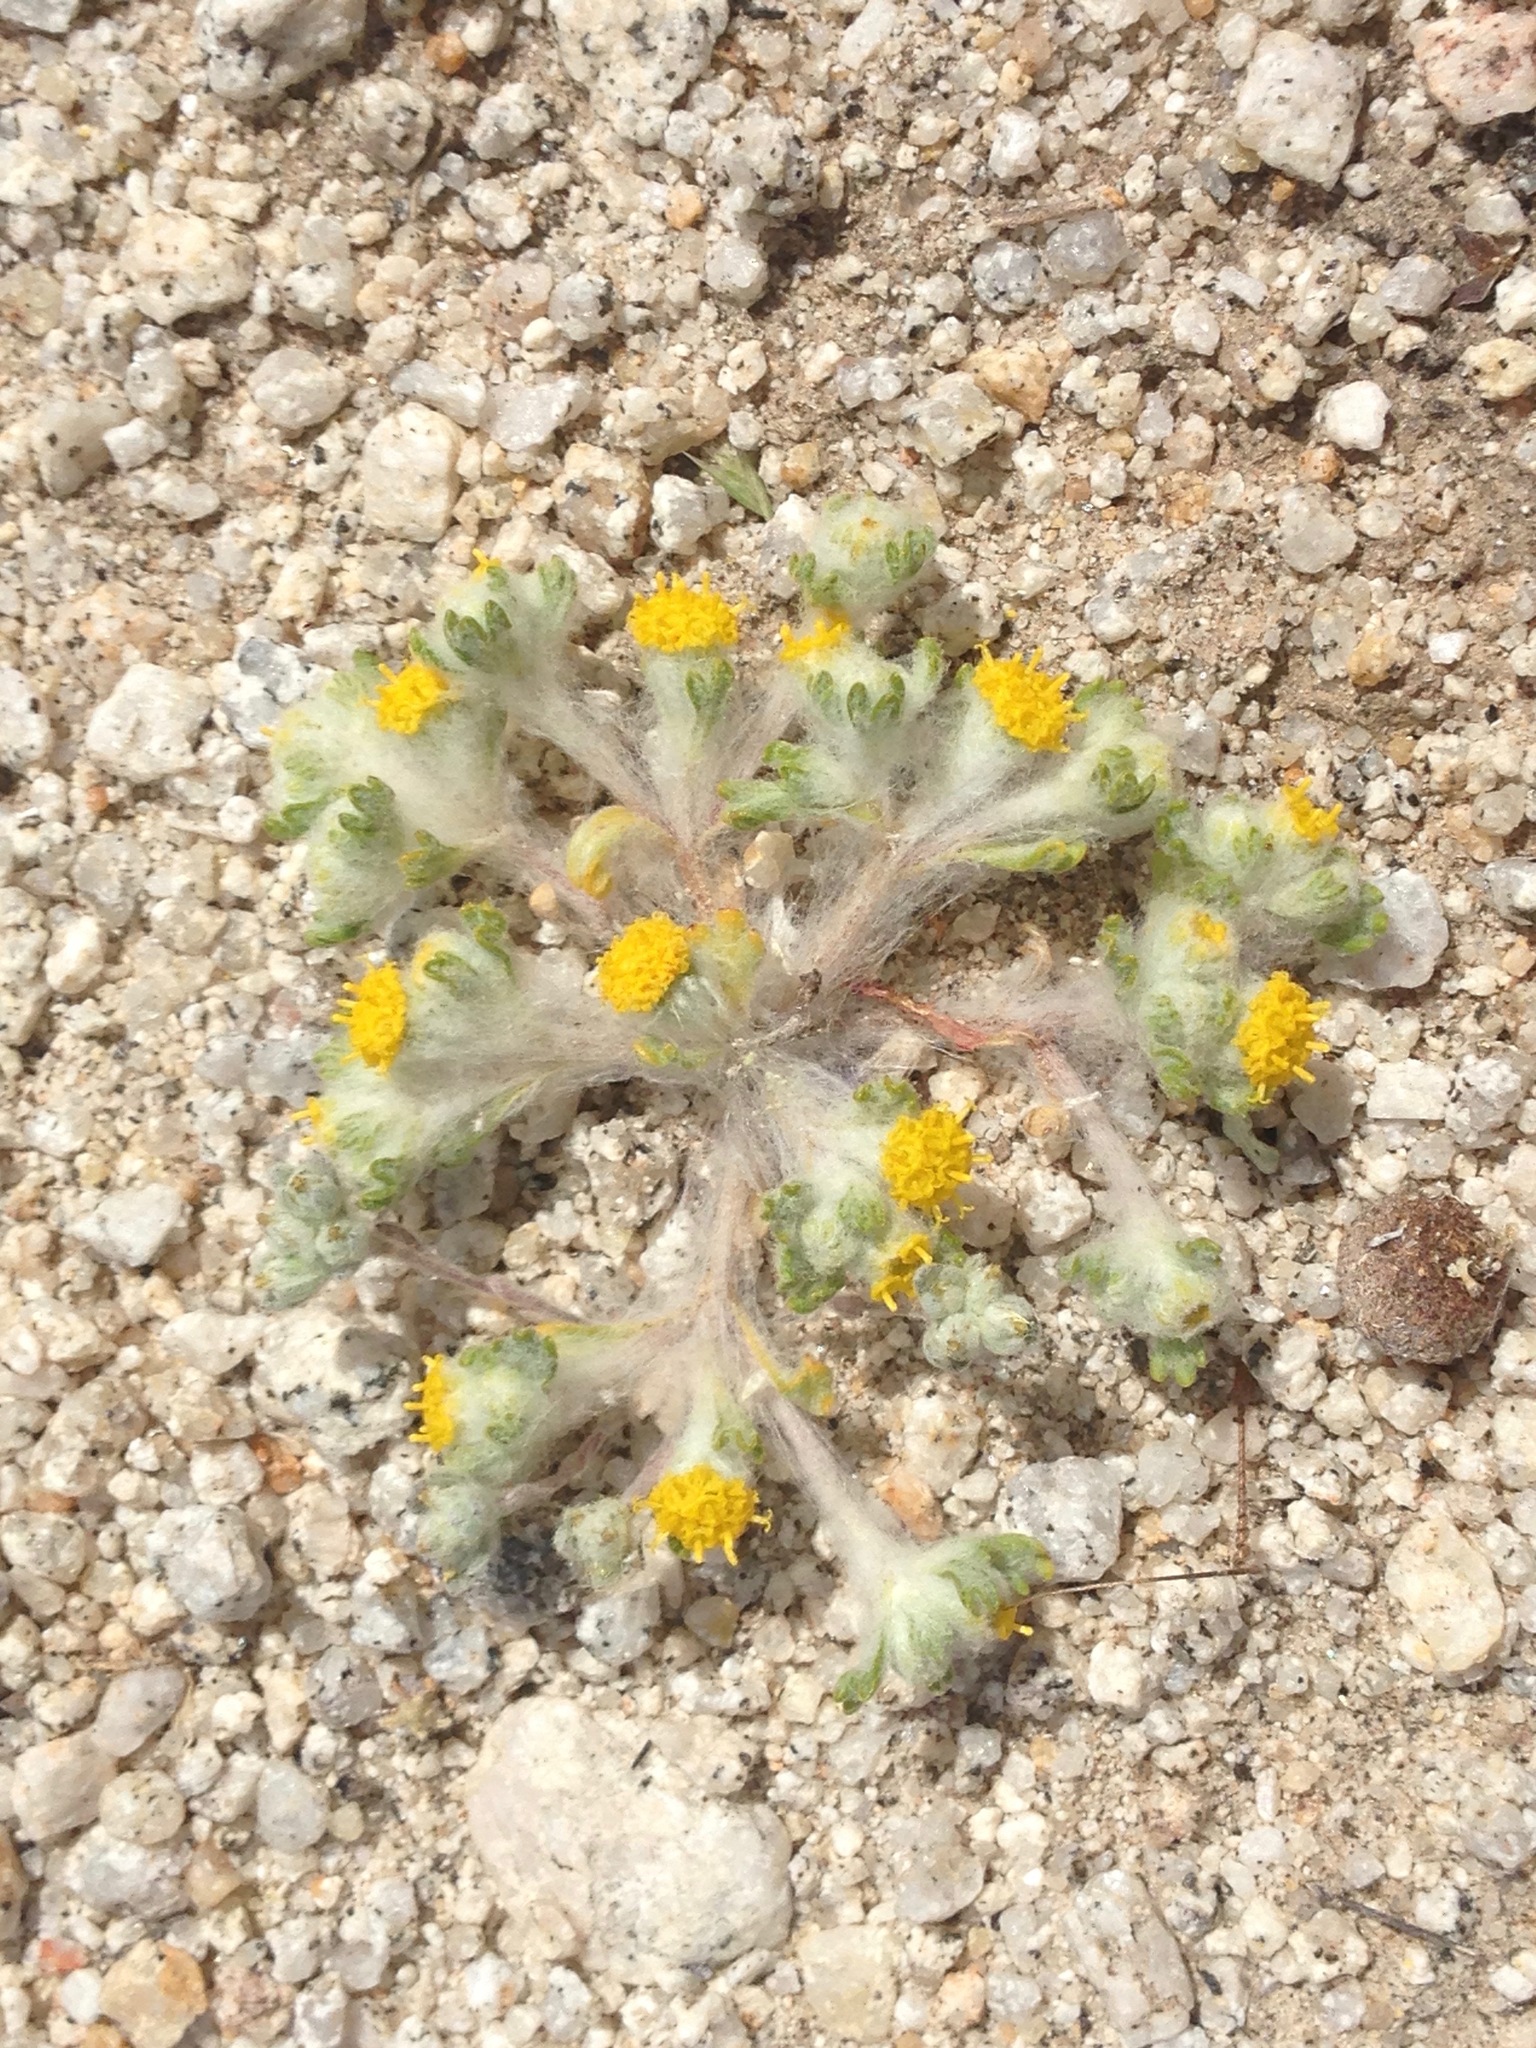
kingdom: Plantae
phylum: Tracheophyta
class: Magnoliopsida
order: Asterales
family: Asteraceae
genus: Eriophyllum
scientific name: Eriophyllum pringlei
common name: Pringle's woolly-sunflower
